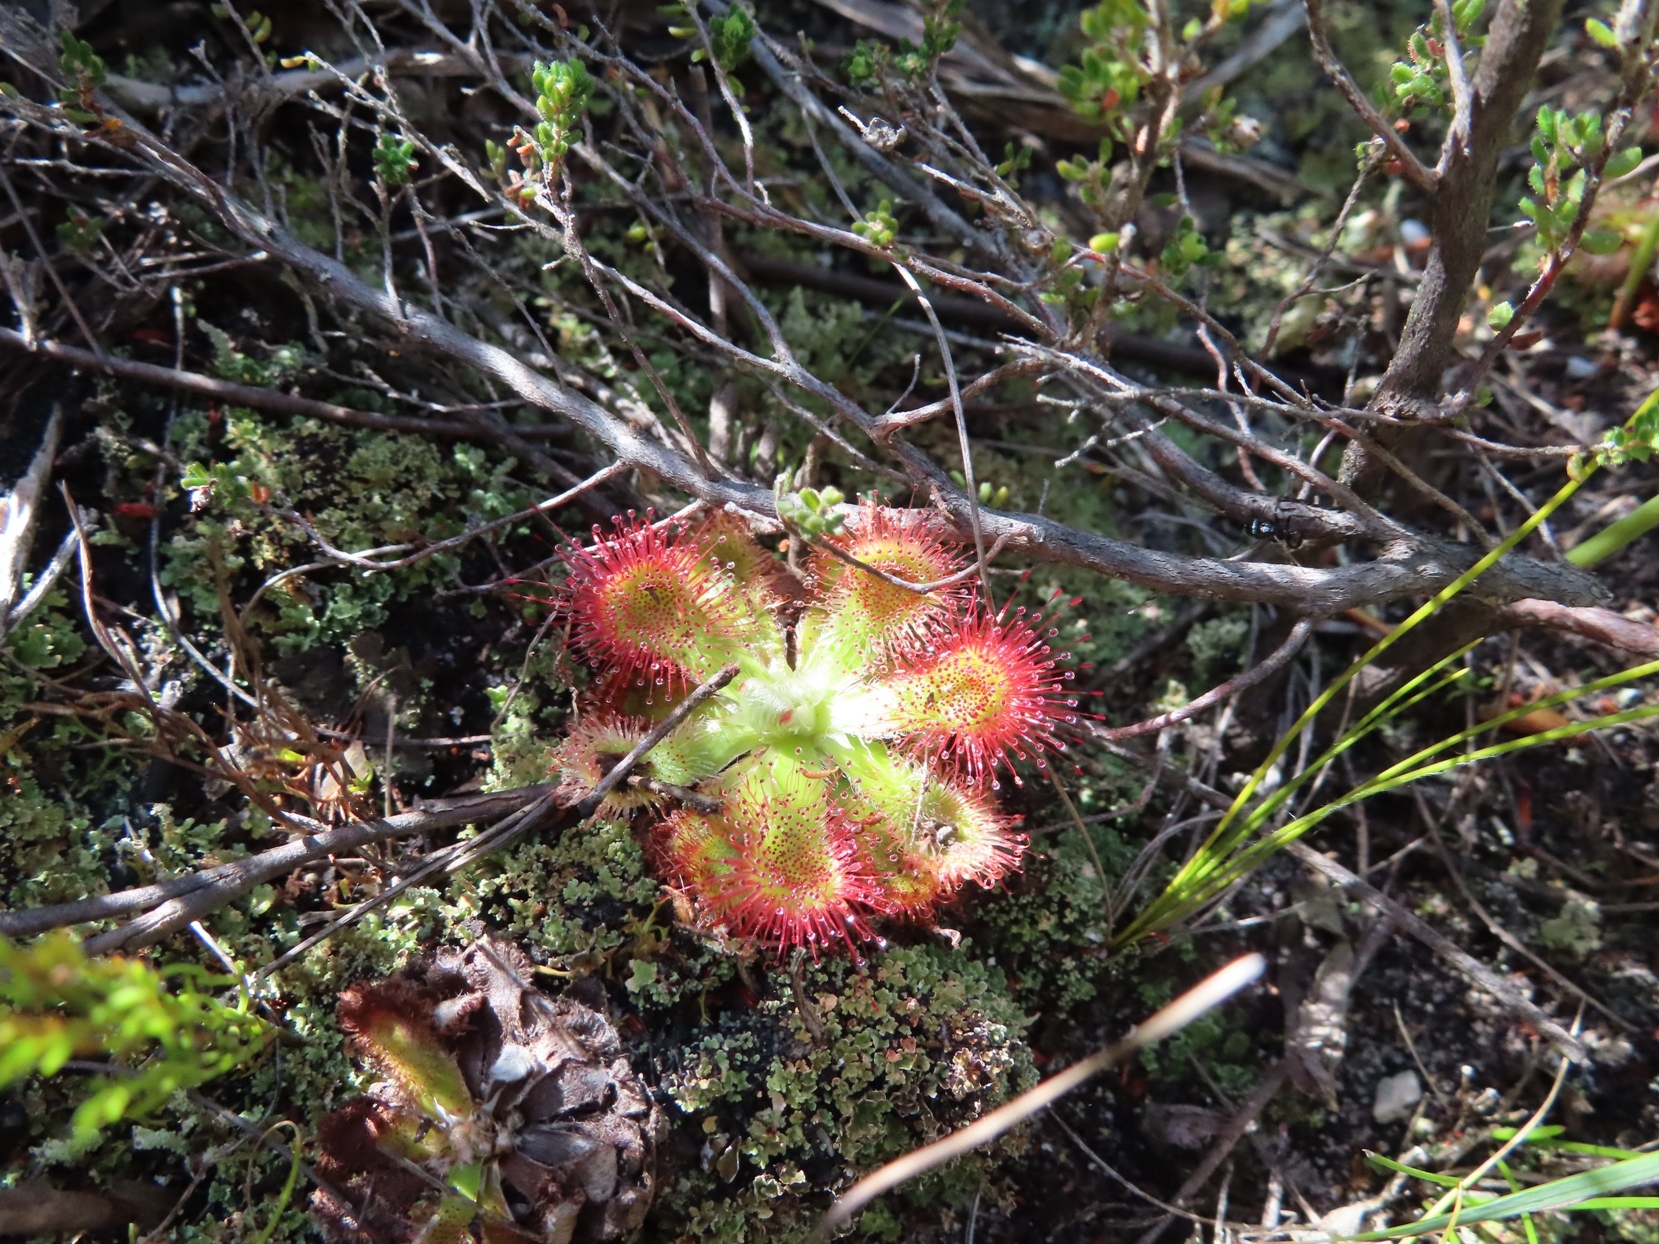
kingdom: Plantae
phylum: Tracheophyta
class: Magnoliopsida
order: Caryophyllales
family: Droseraceae
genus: Drosera
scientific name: Drosera aliciae
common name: Alice sundew
